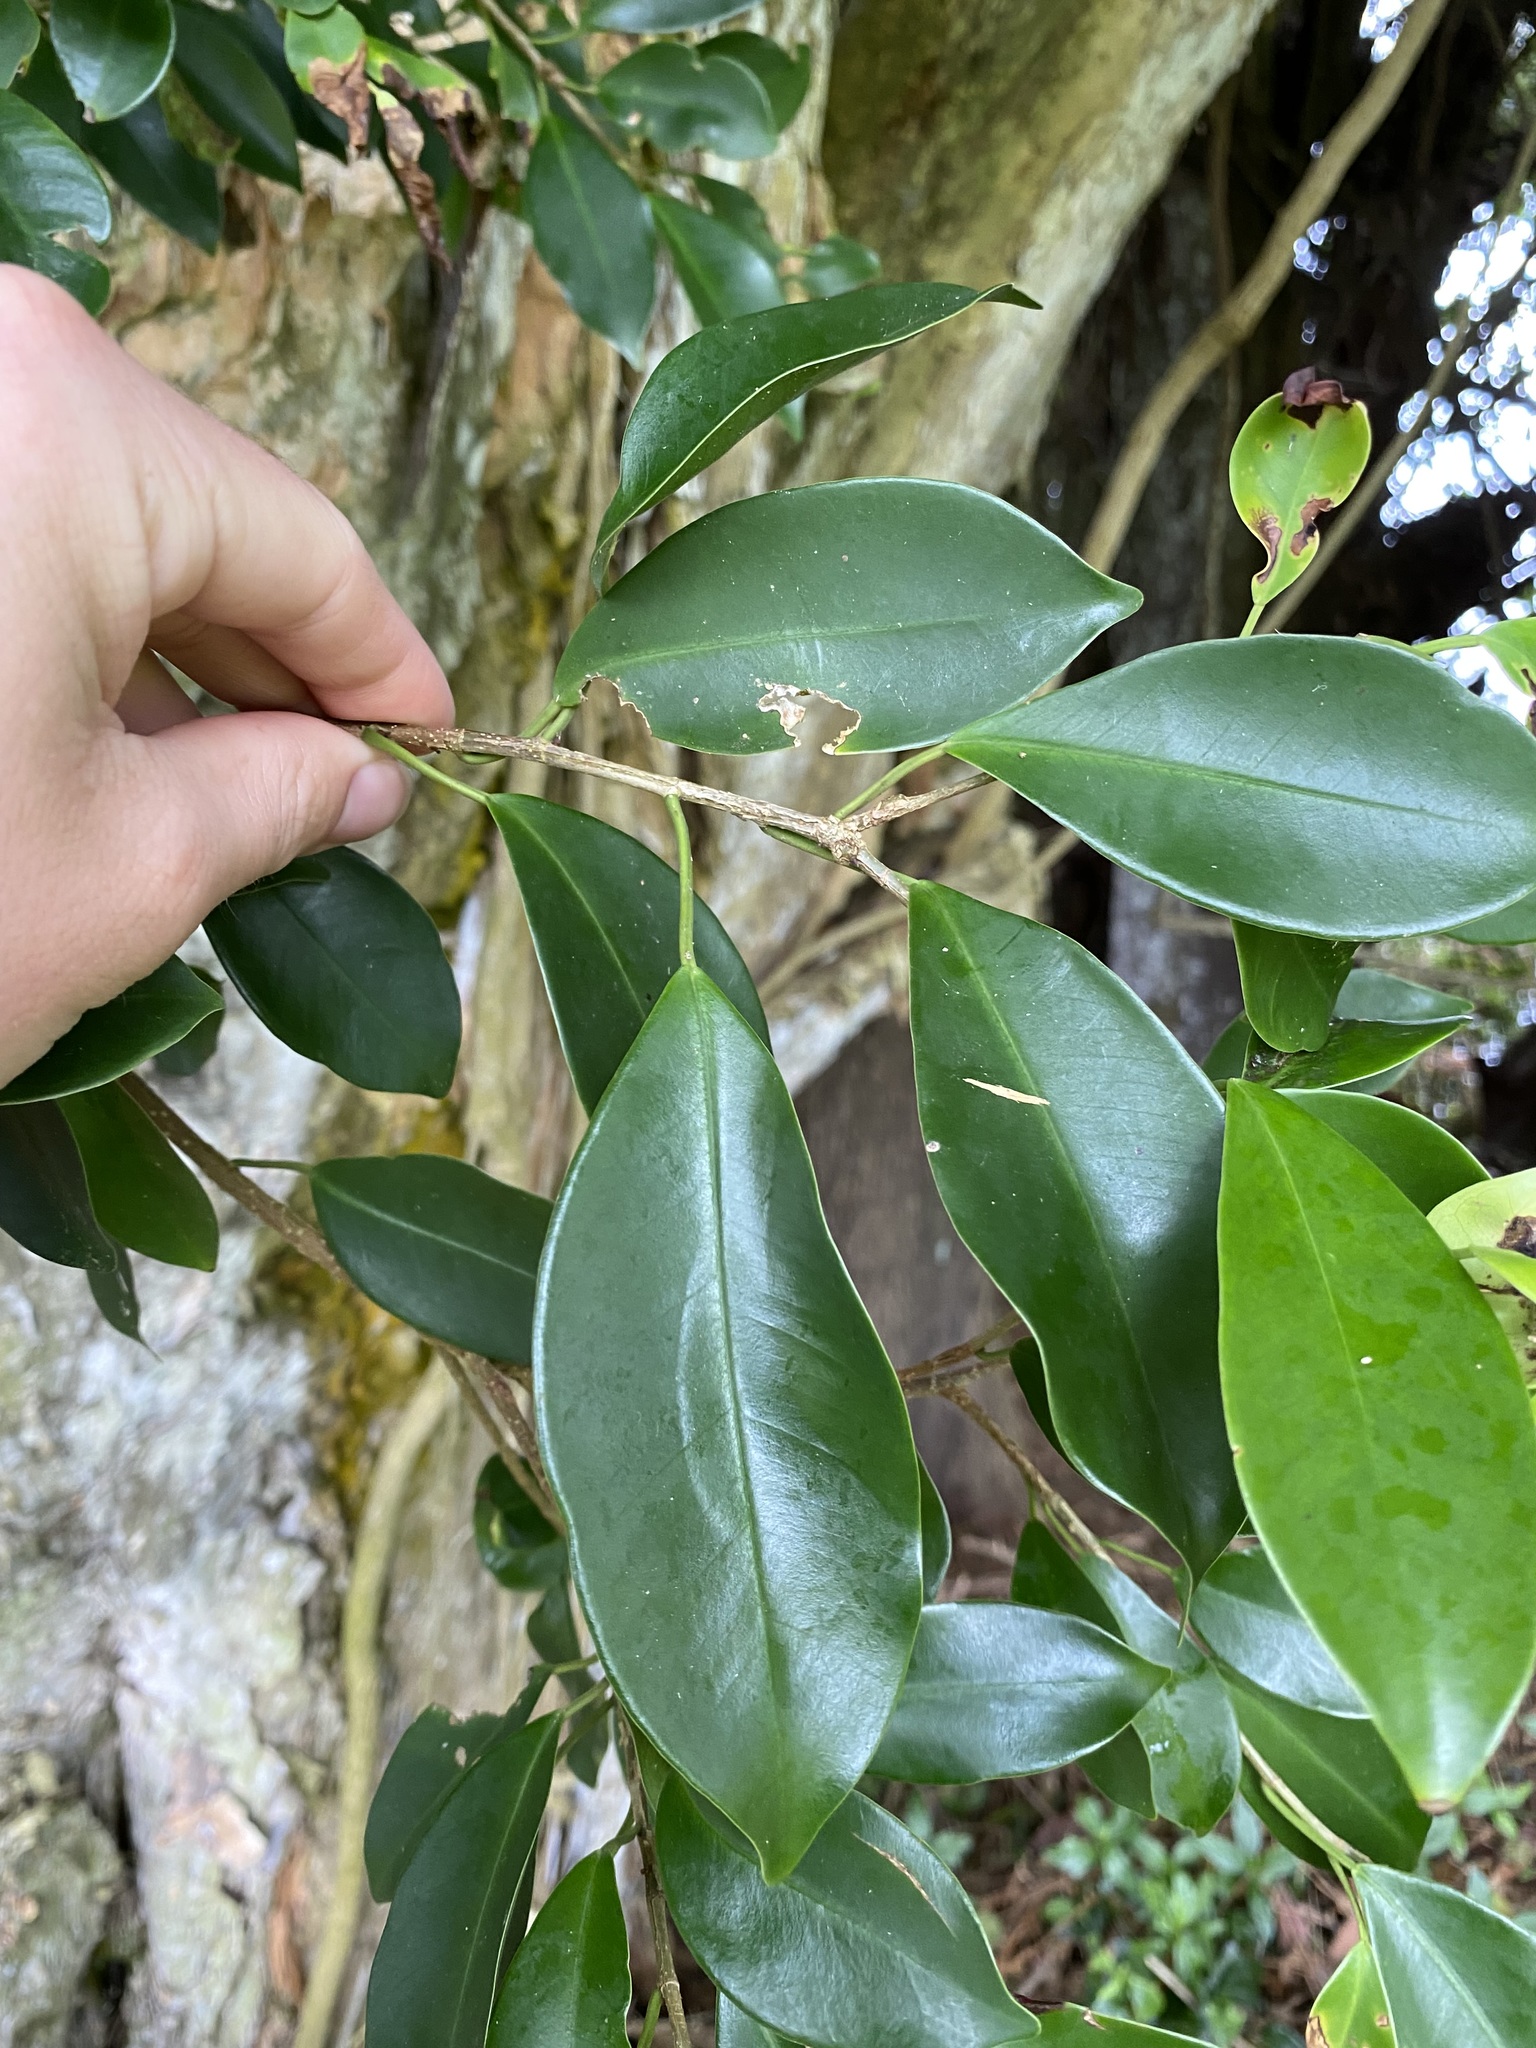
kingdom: Plantae
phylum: Tracheophyta
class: Magnoliopsida
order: Rosales
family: Moraceae
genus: Ficus
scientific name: Ficus microcarpa
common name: Chinese banyan
